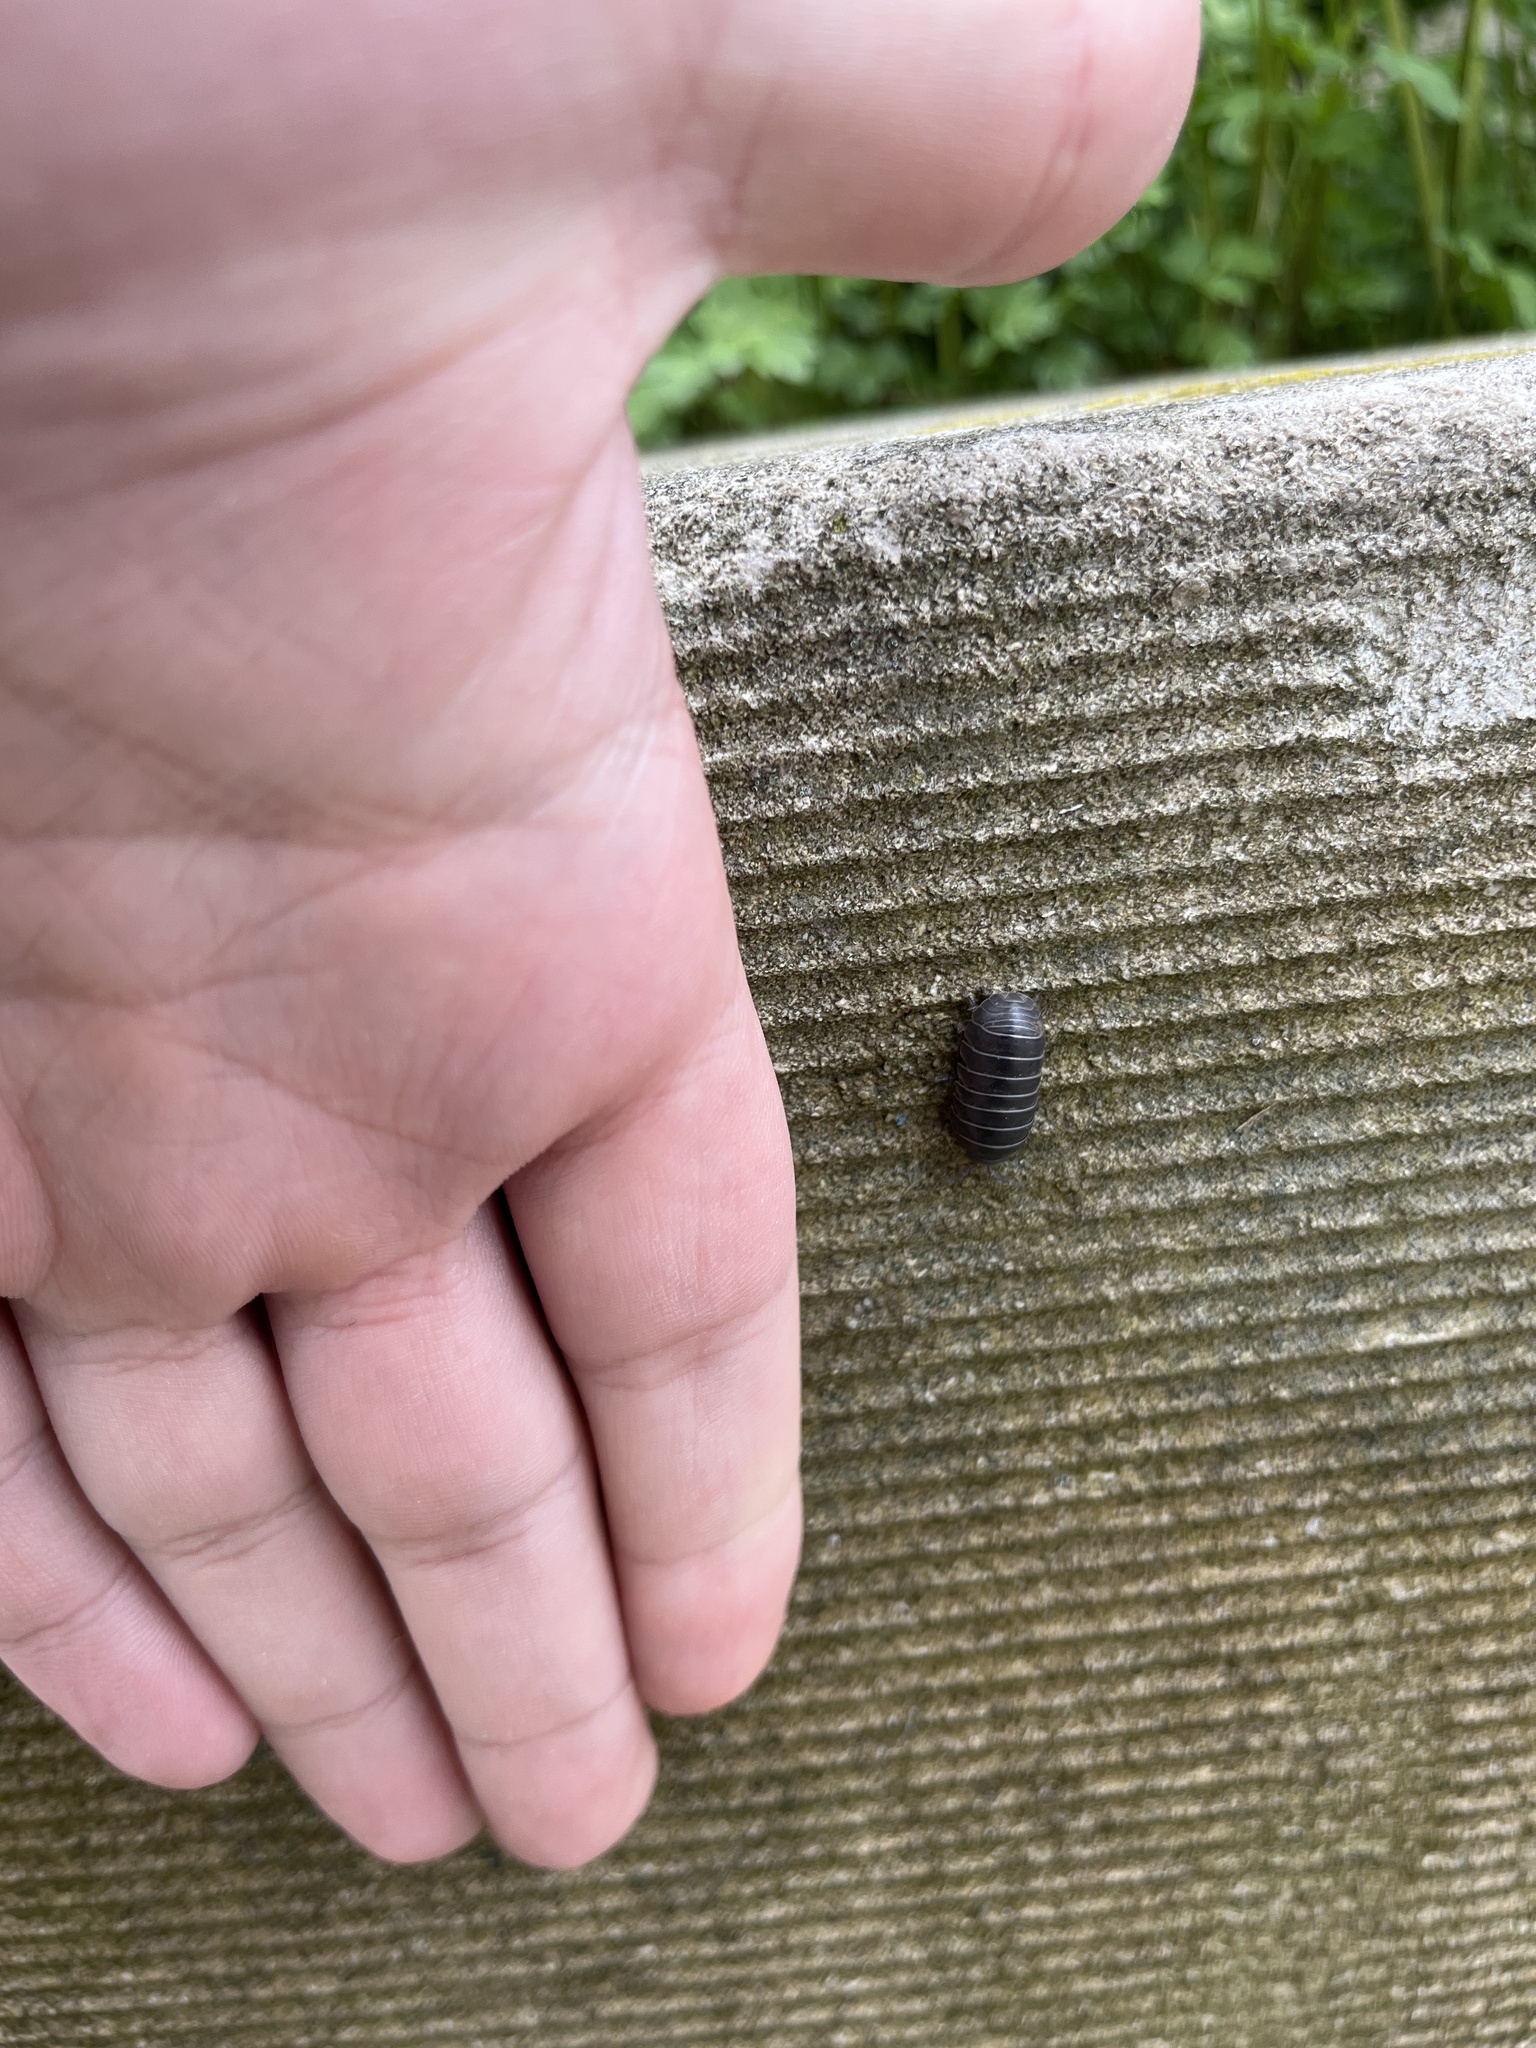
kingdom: Animalia
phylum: Arthropoda
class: Malacostraca
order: Isopoda
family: Armadillidiidae
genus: Armadillidium
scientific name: Armadillidium vulgare
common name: Common pill woodlouse
